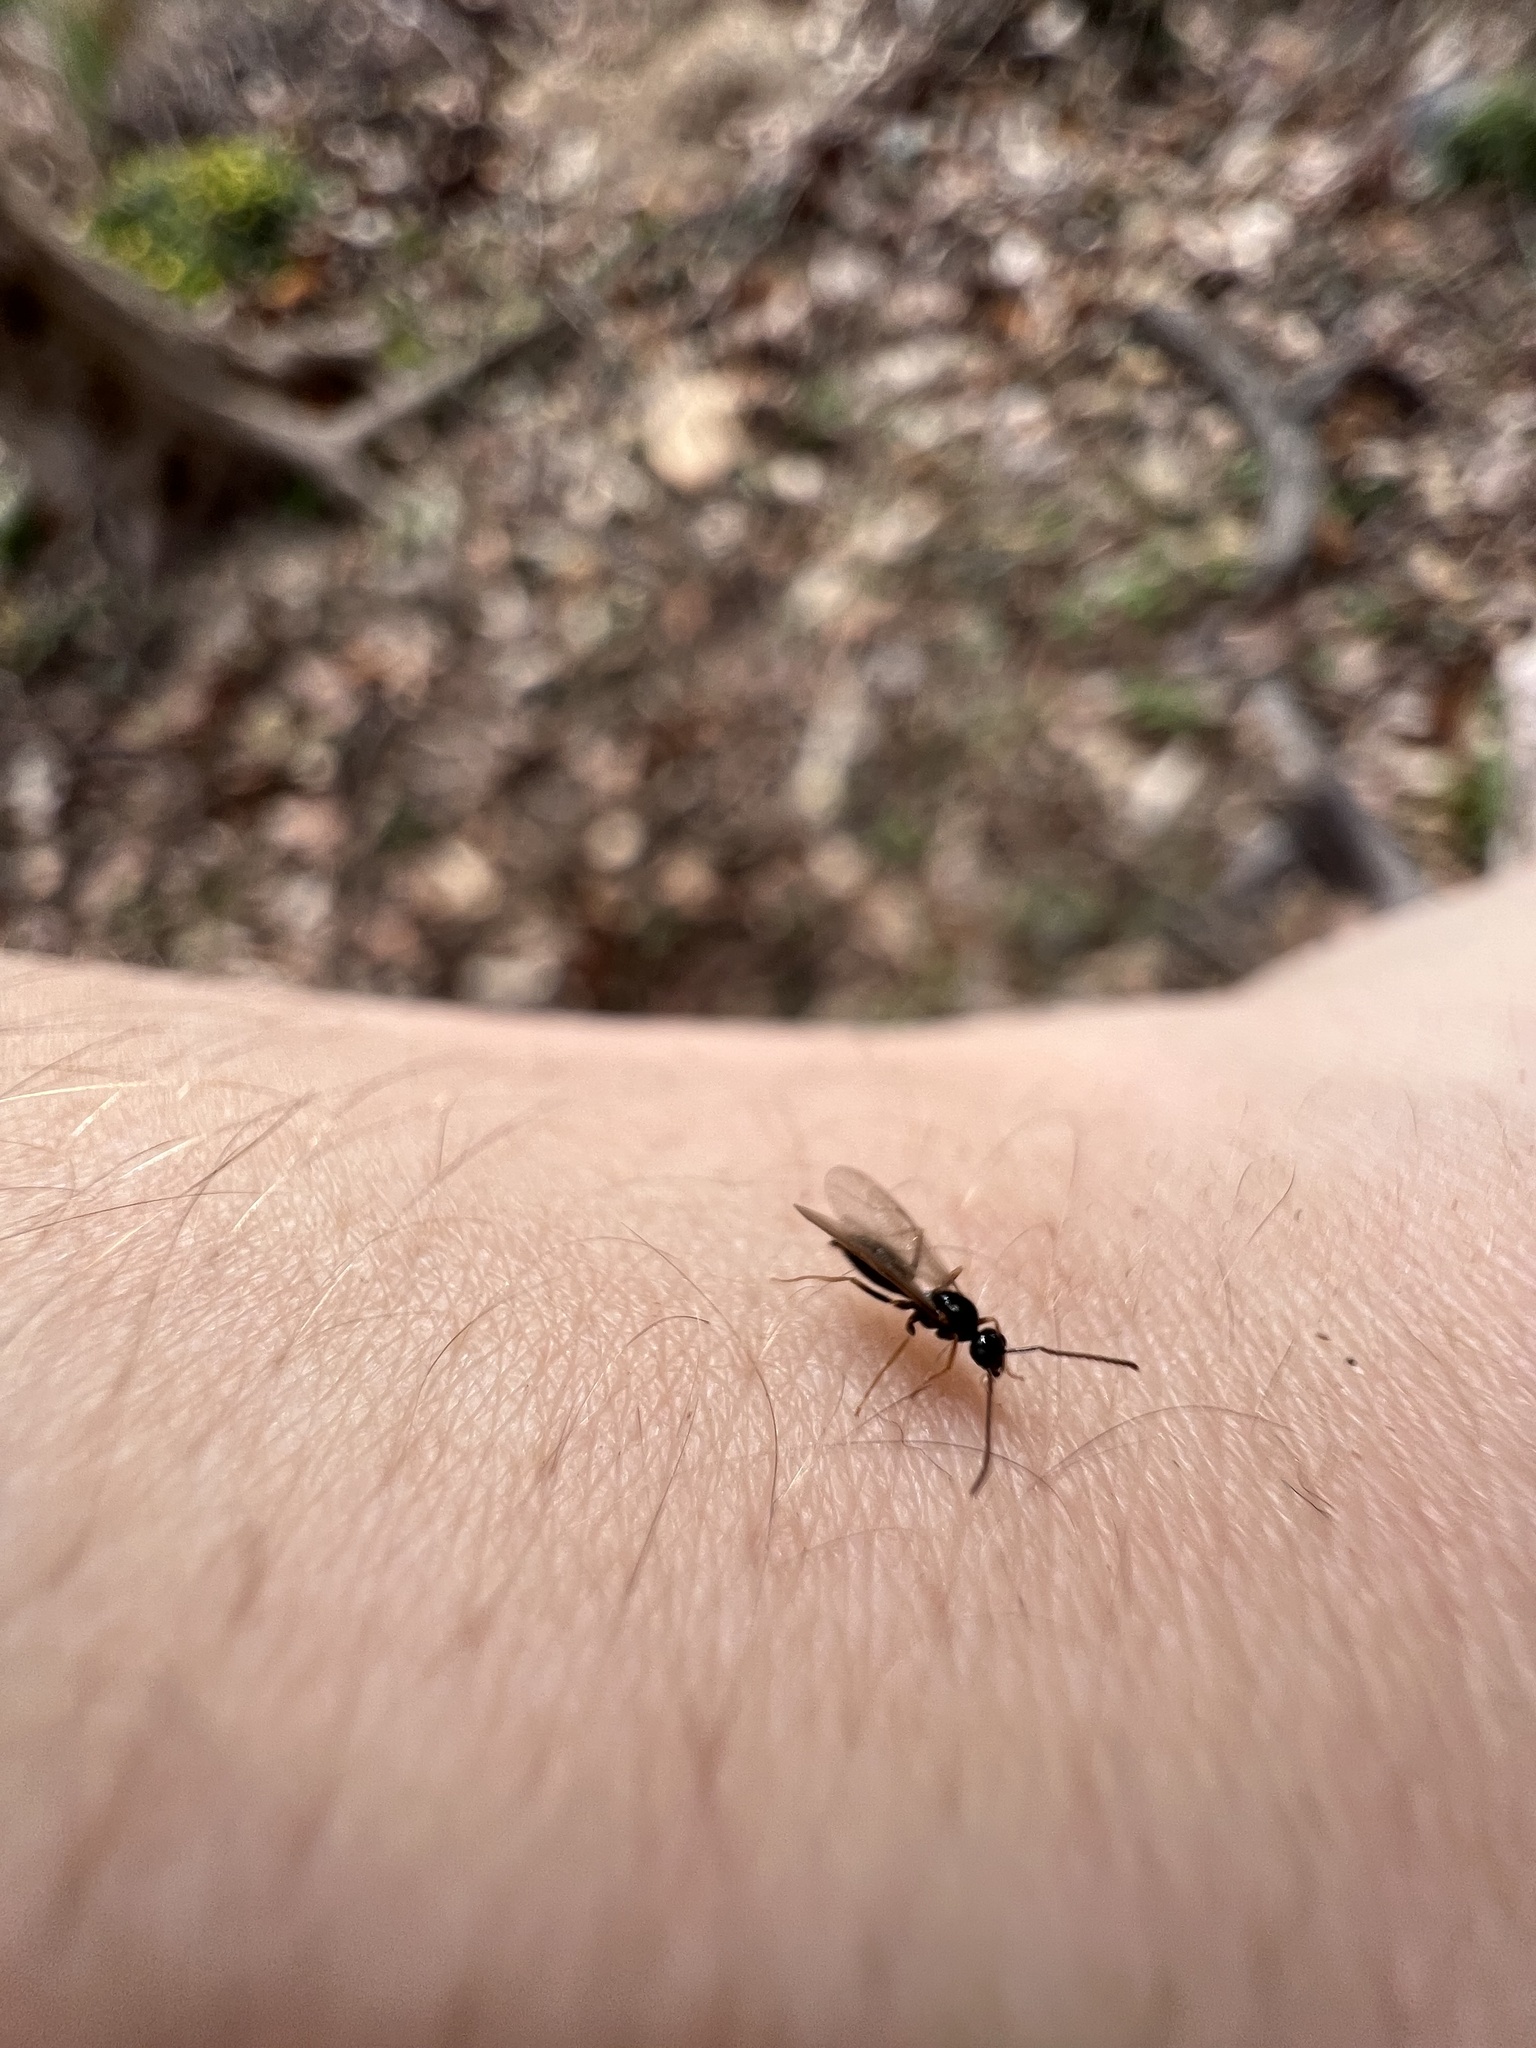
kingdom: Animalia
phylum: Arthropoda
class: Insecta
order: Hymenoptera
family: Formicidae
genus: Prenolepis
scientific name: Prenolepis imparis
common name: Small honey ant
